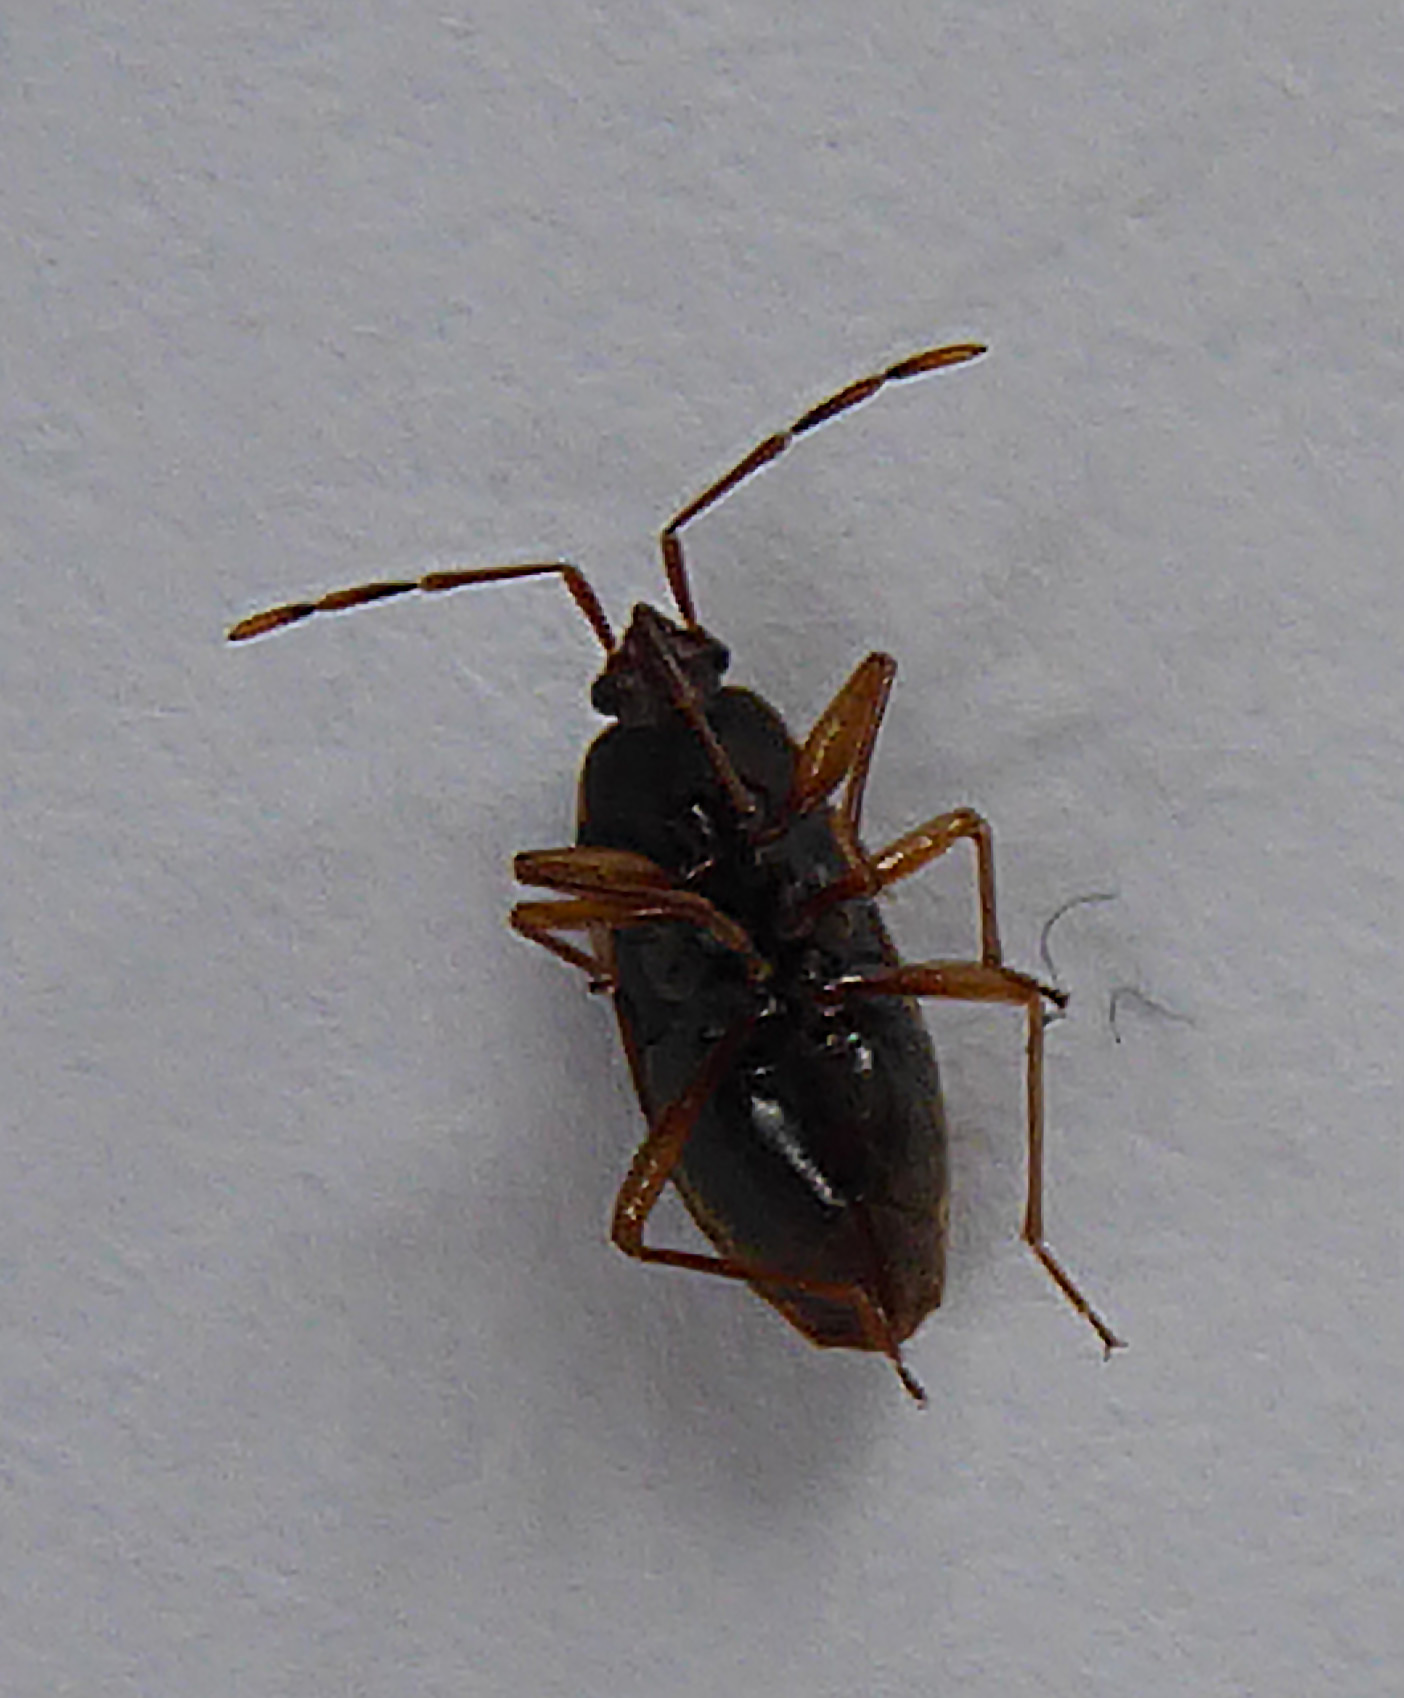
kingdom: Animalia
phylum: Arthropoda
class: Insecta
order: Hemiptera
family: Rhyparochromidae
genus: Targarema
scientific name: Targarema stali
